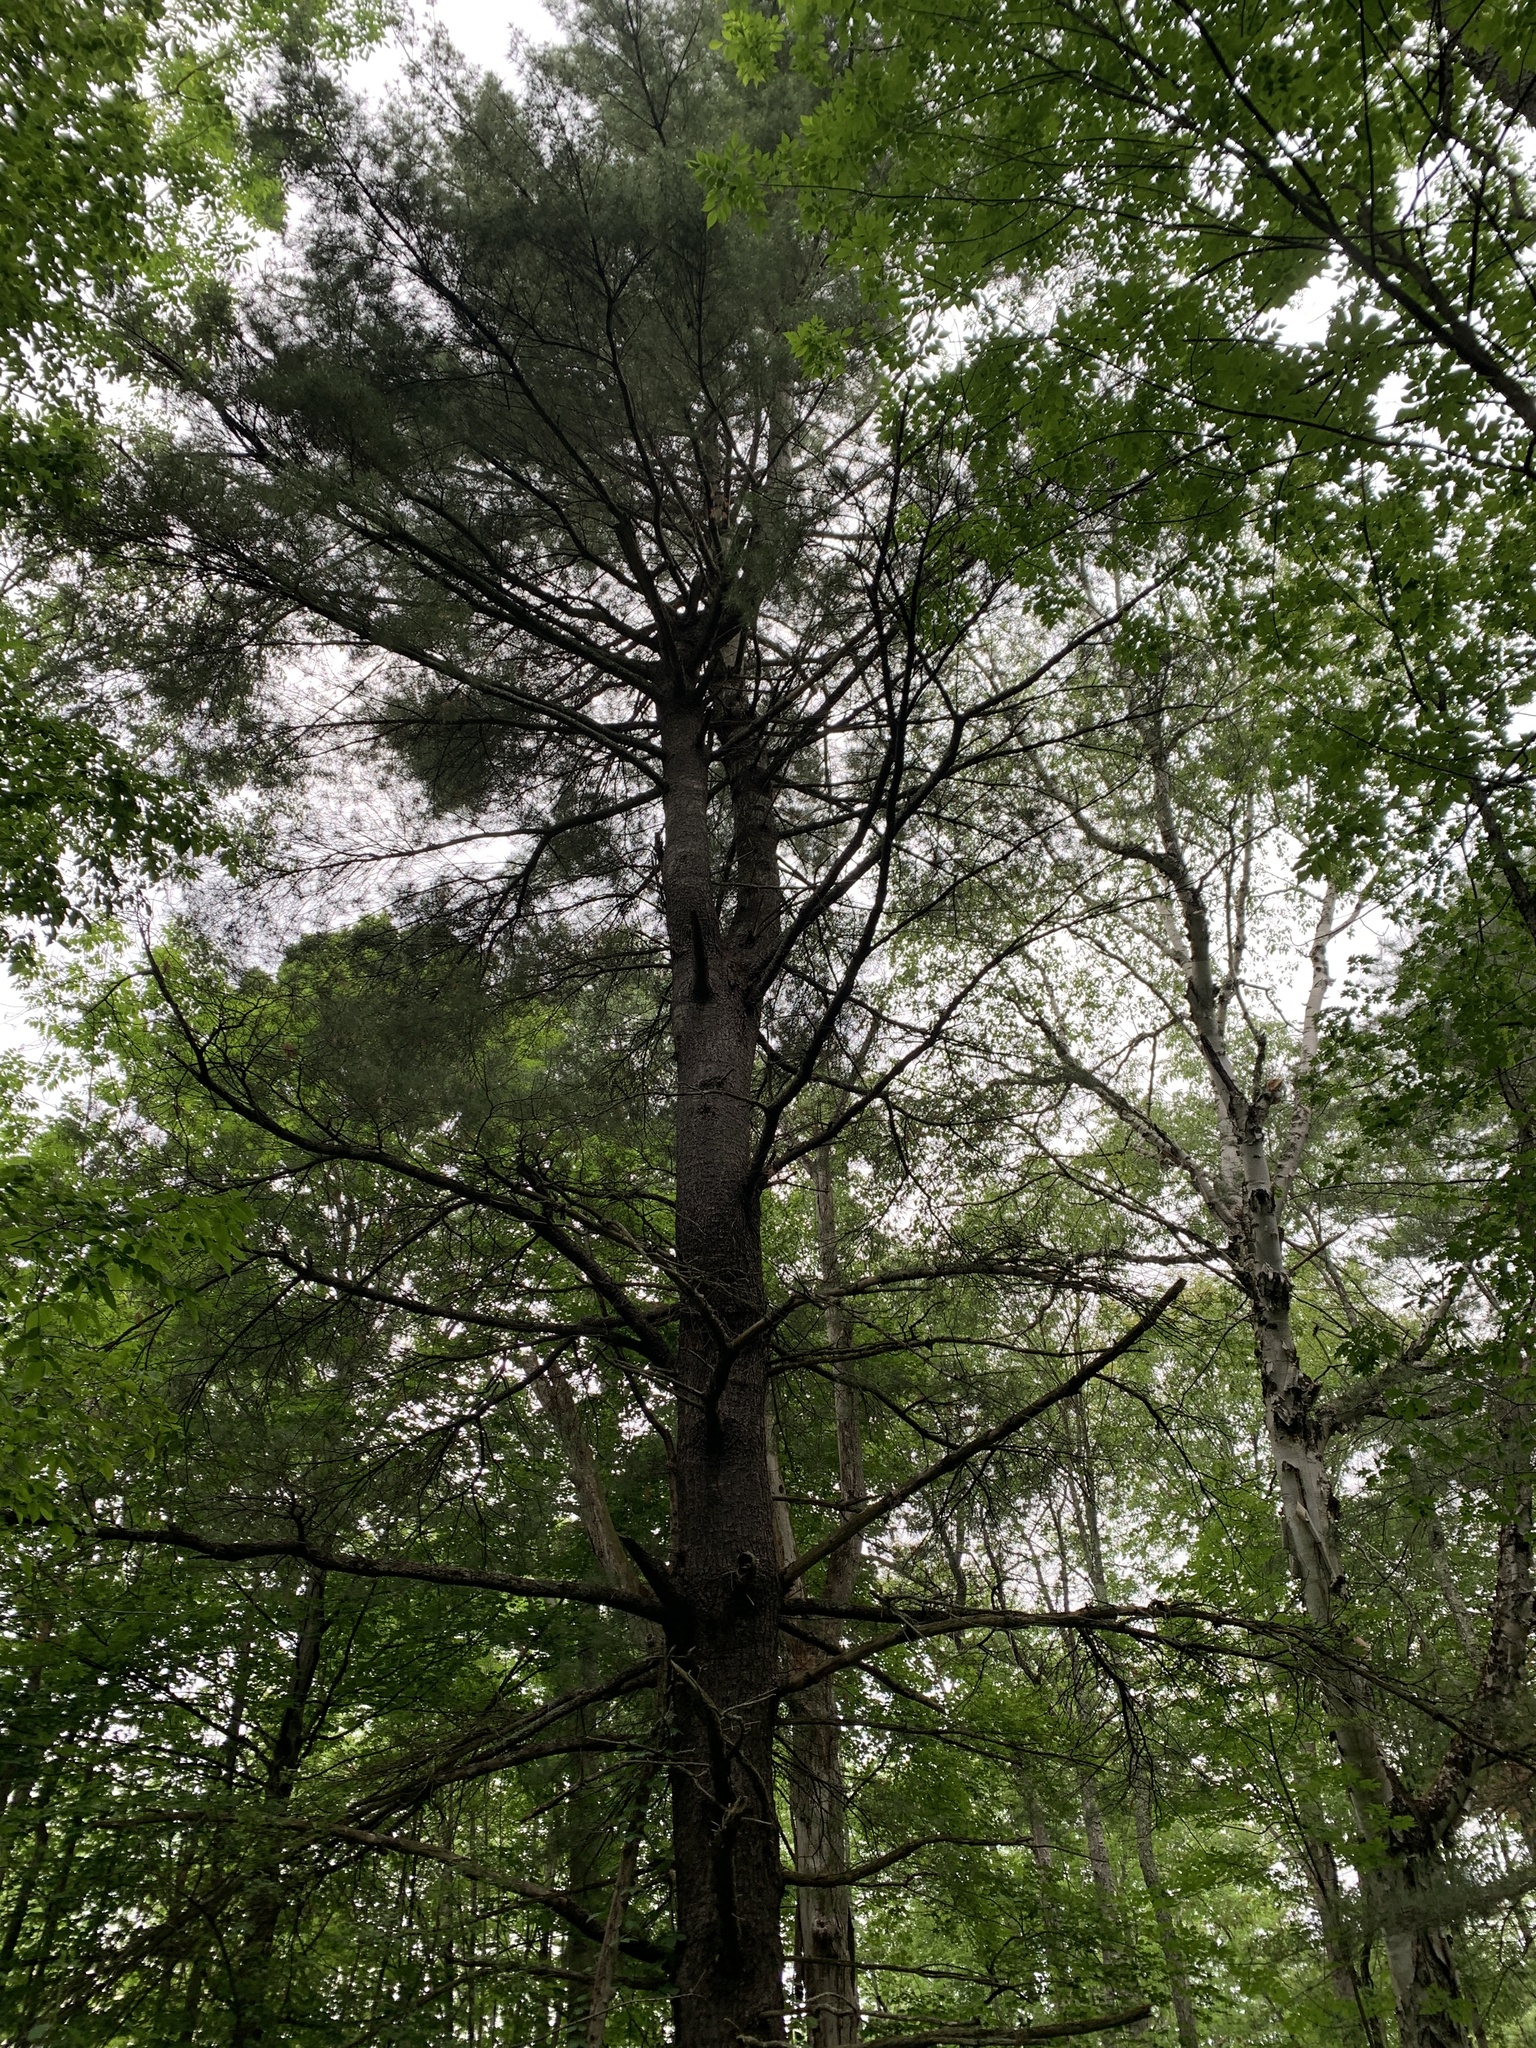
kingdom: Plantae
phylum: Tracheophyta
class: Pinopsida
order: Pinales
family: Pinaceae
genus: Pinus
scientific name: Pinus strobus
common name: Weymouth pine
